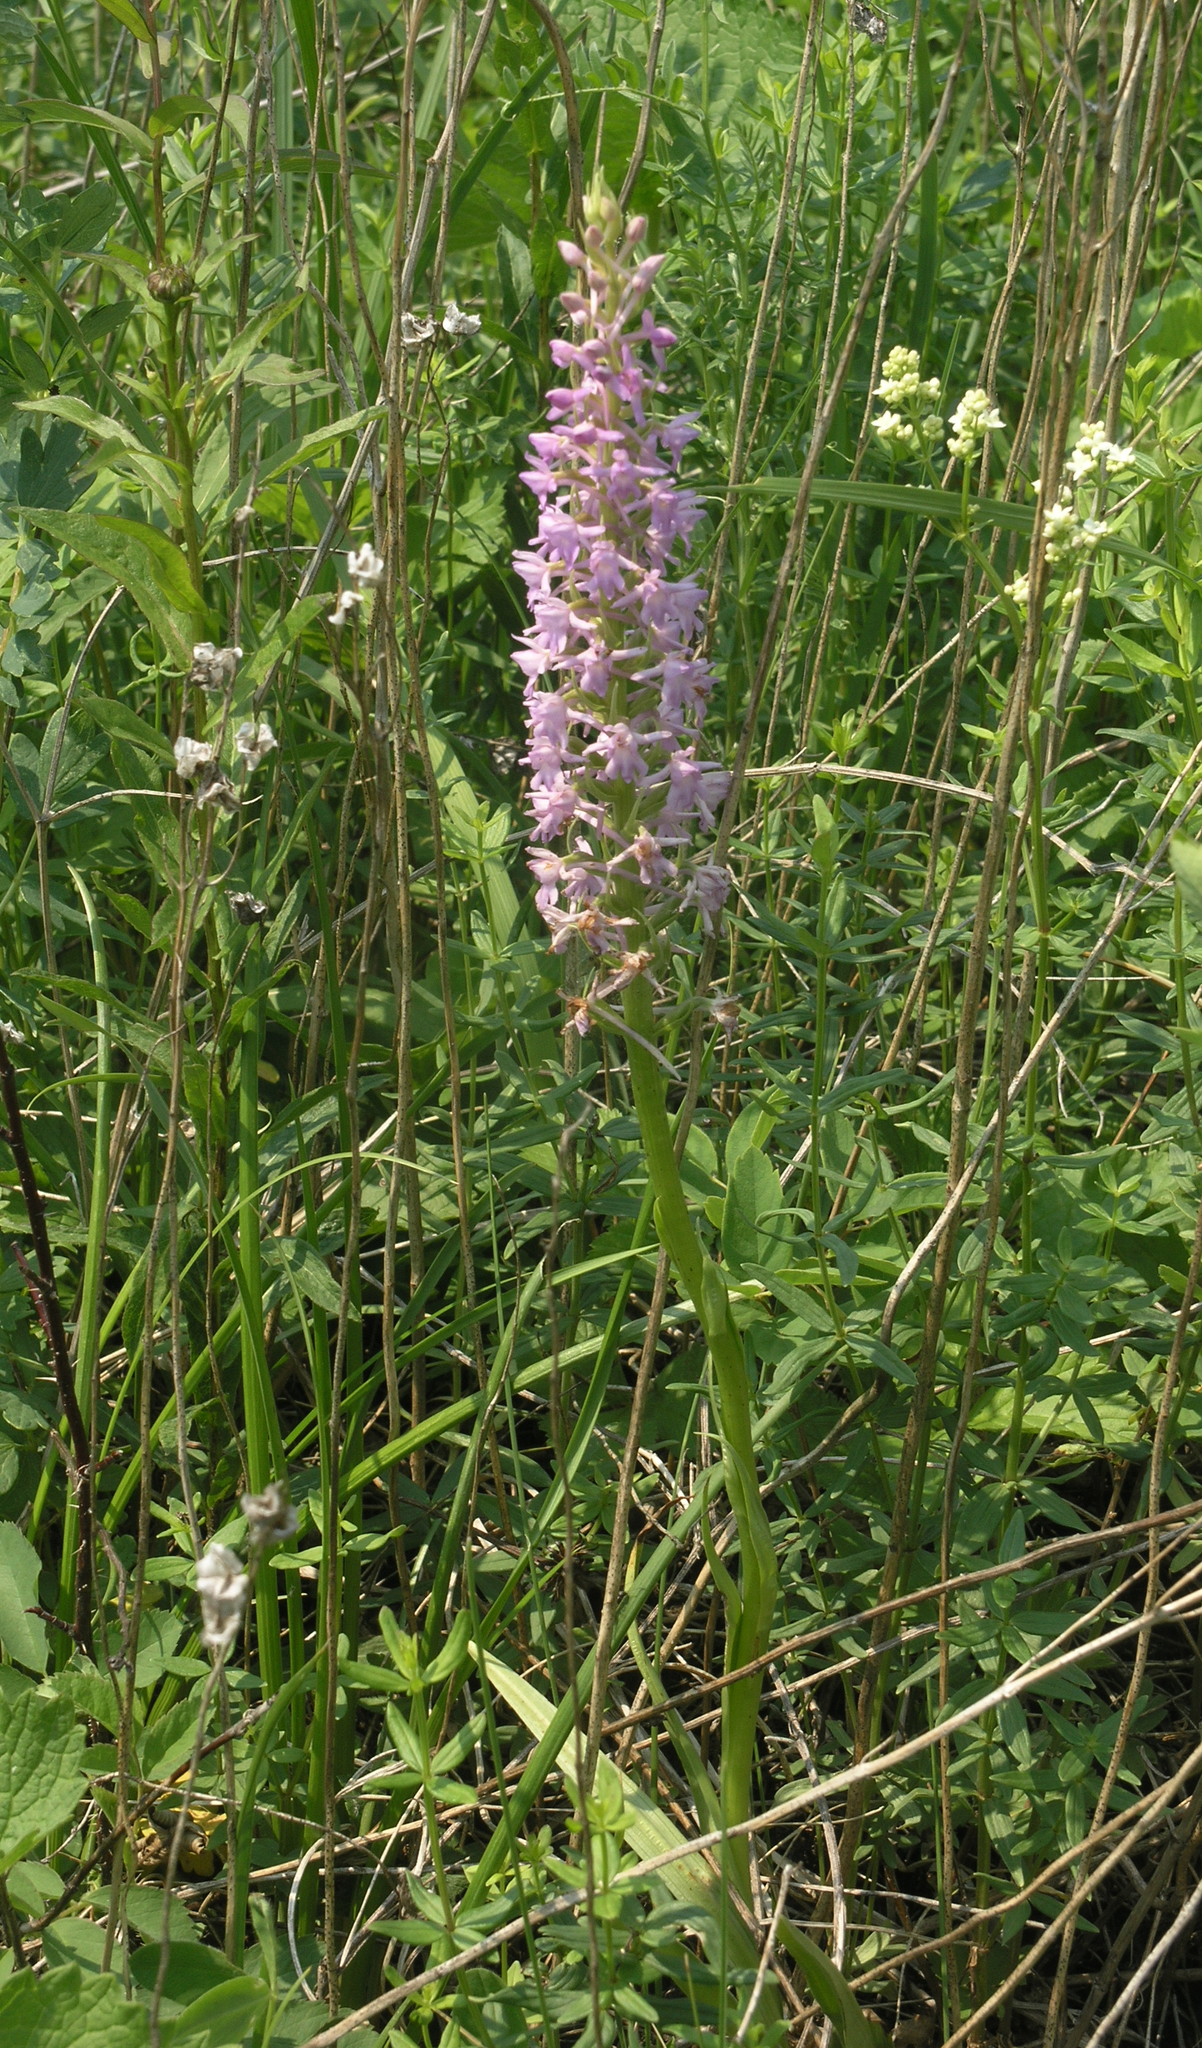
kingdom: Plantae
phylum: Tracheophyta
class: Liliopsida
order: Asparagales
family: Orchidaceae
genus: Gymnadenia
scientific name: Gymnadenia conopsea
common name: Fragrant orchid
